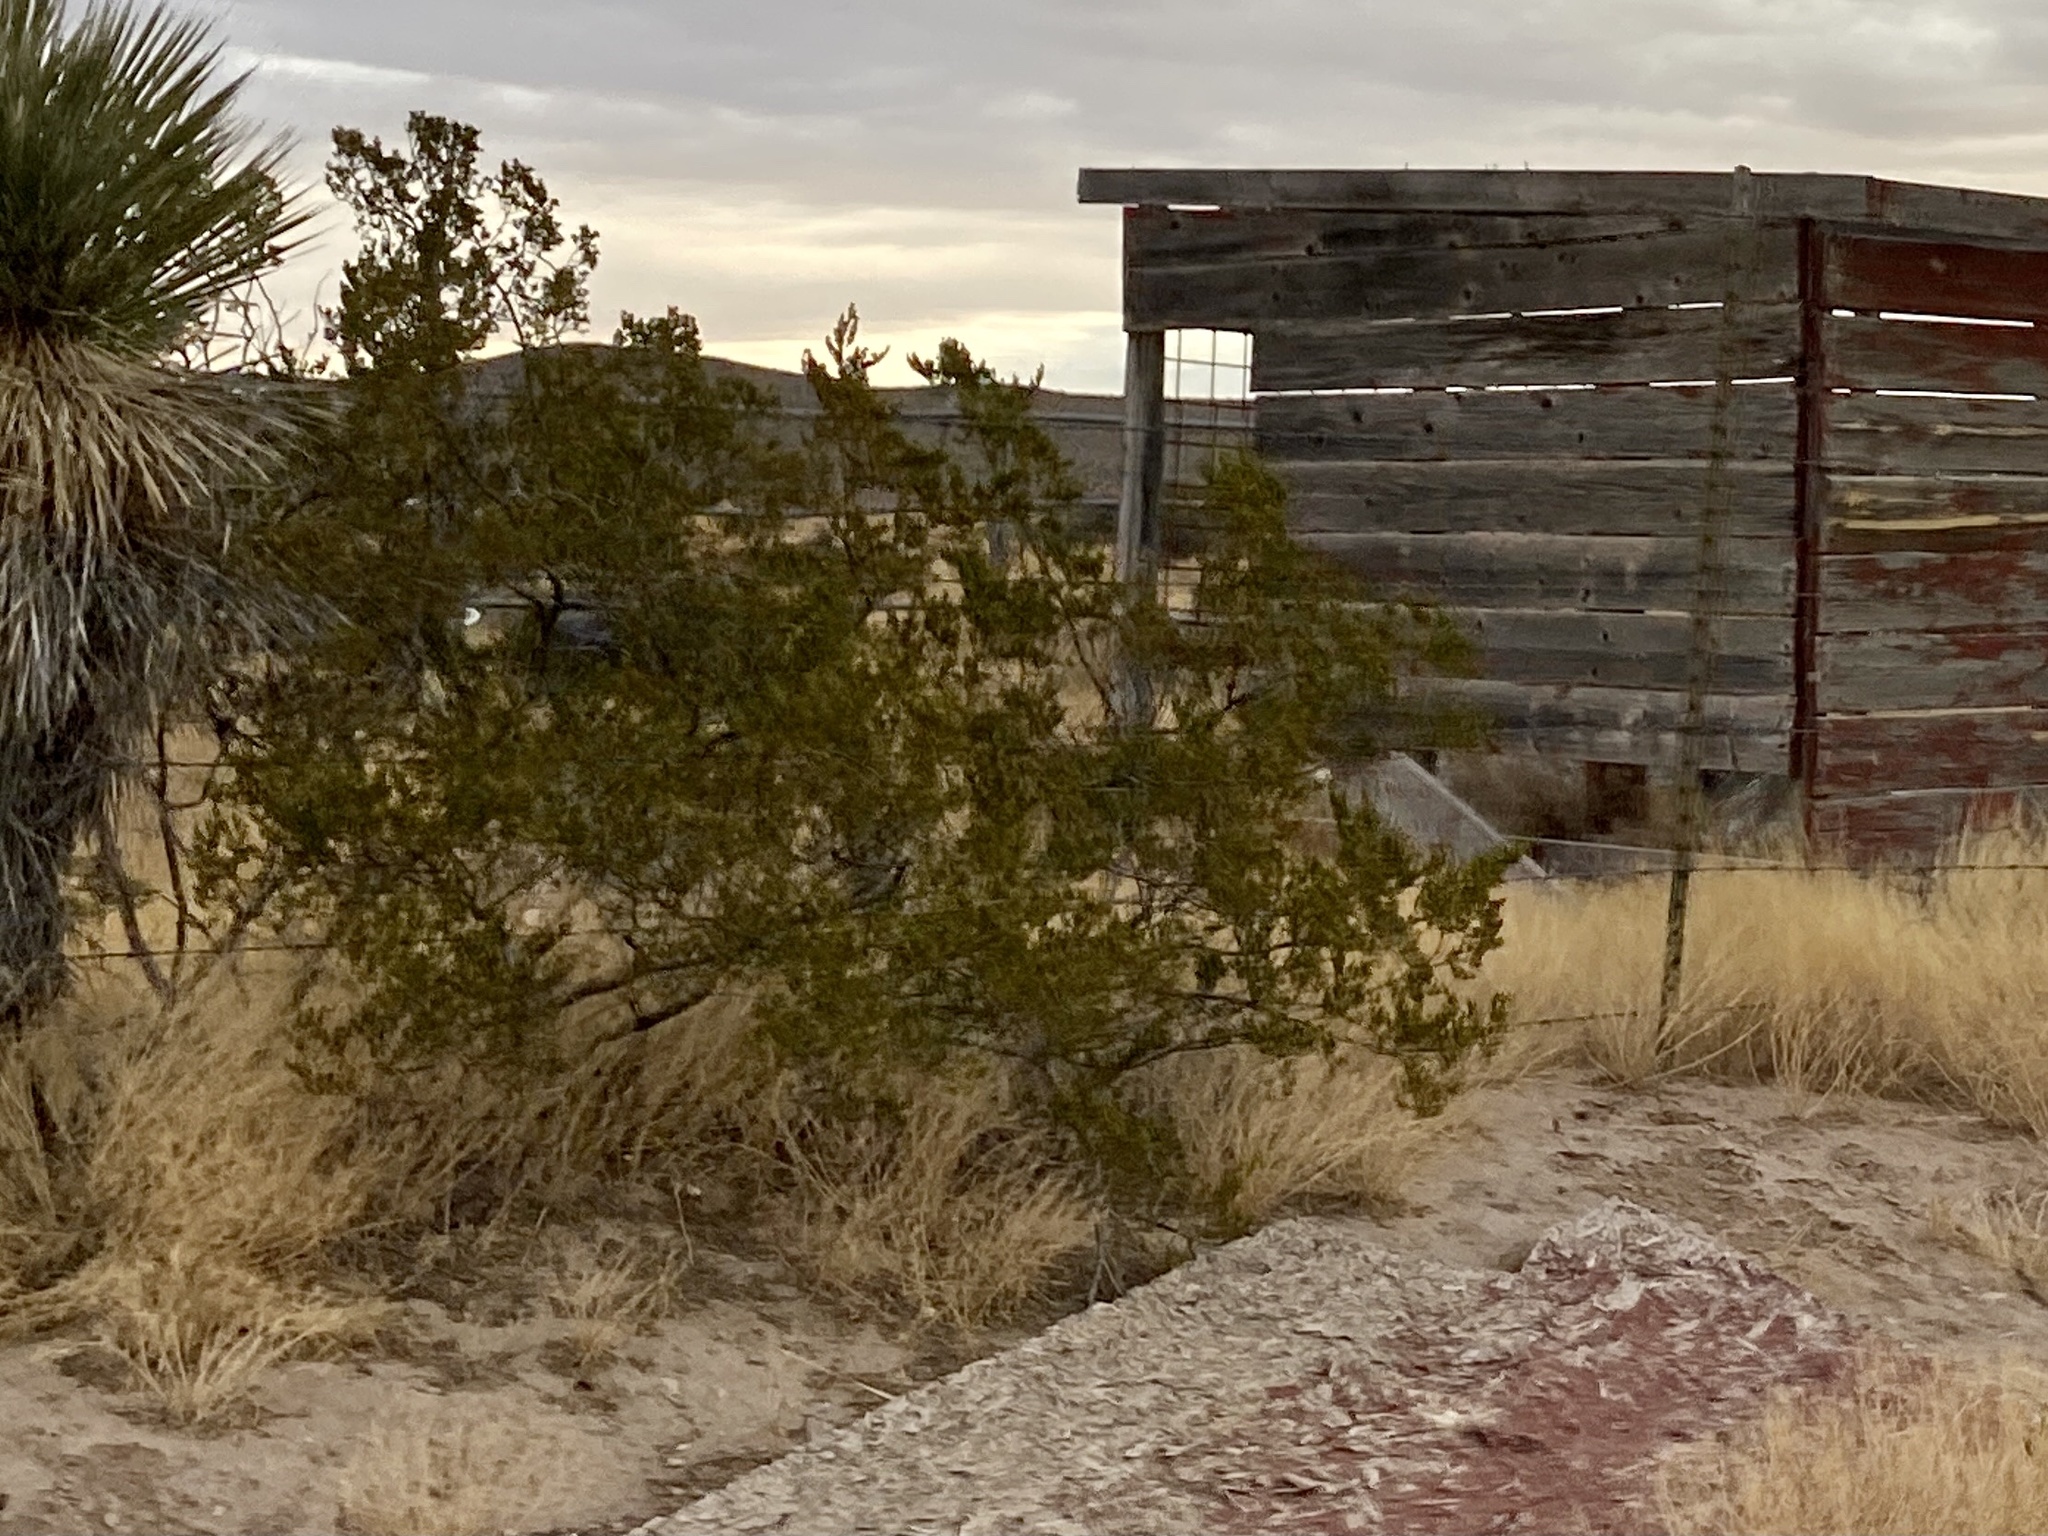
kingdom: Plantae
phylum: Tracheophyta
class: Magnoliopsida
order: Zygophyllales
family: Zygophyllaceae
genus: Larrea
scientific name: Larrea tridentata
